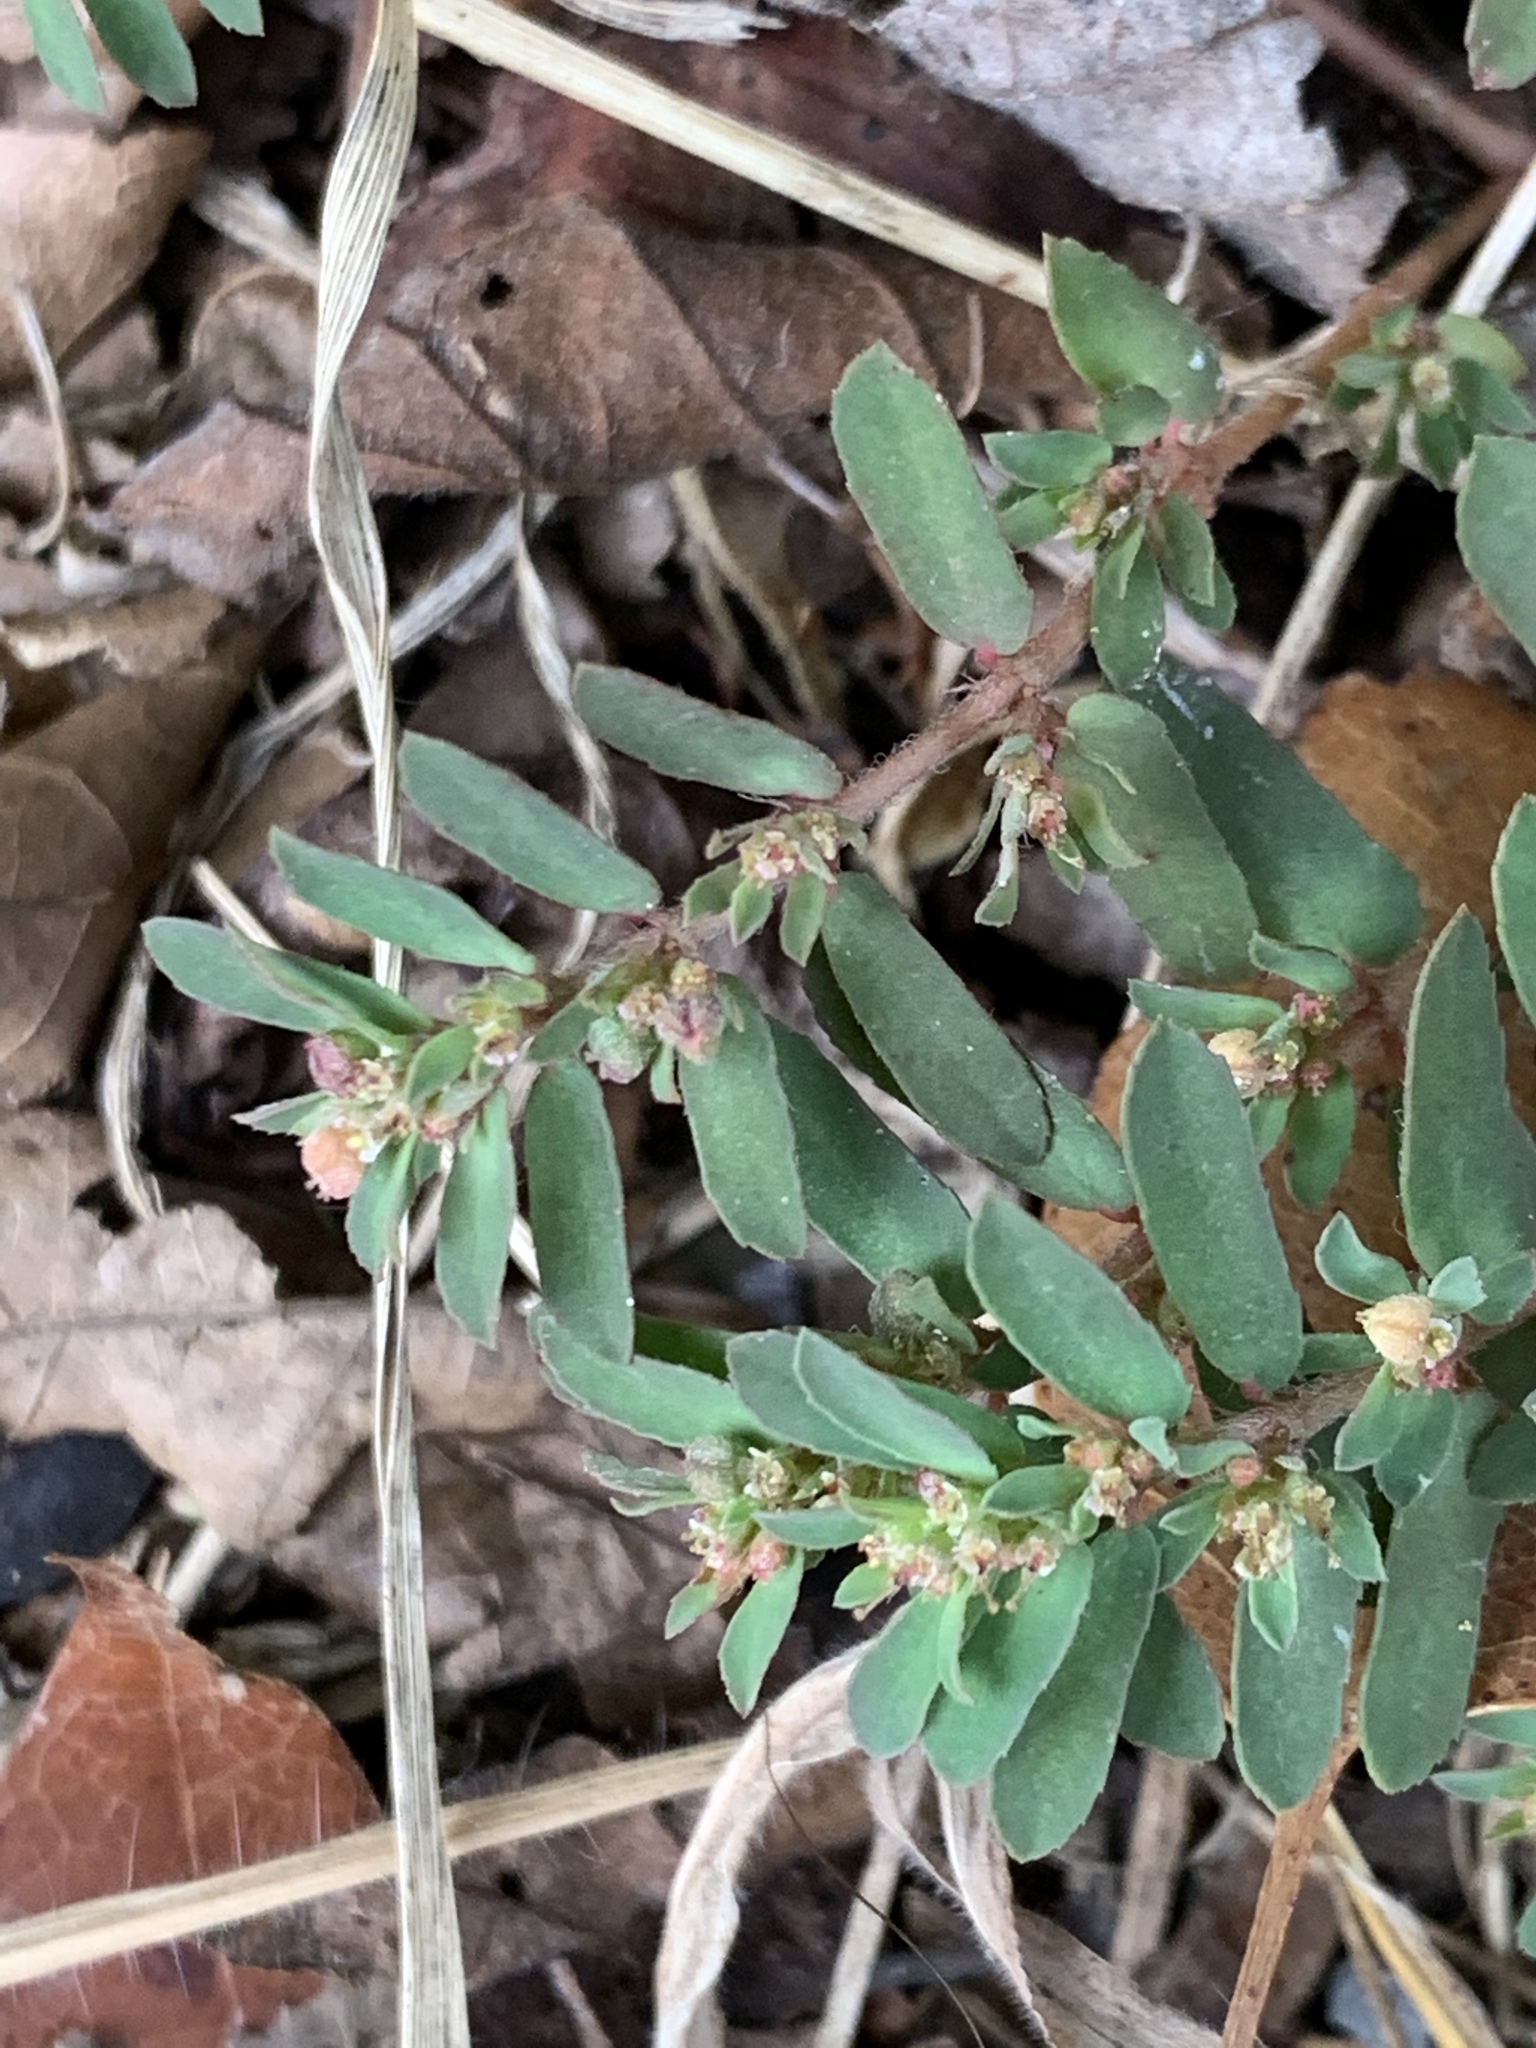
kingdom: Plantae
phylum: Tracheophyta
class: Magnoliopsida
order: Malpighiales
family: Euphorbiaceae
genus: Euphorbia
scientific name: Euphorbia maculata
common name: Spotted spurge
